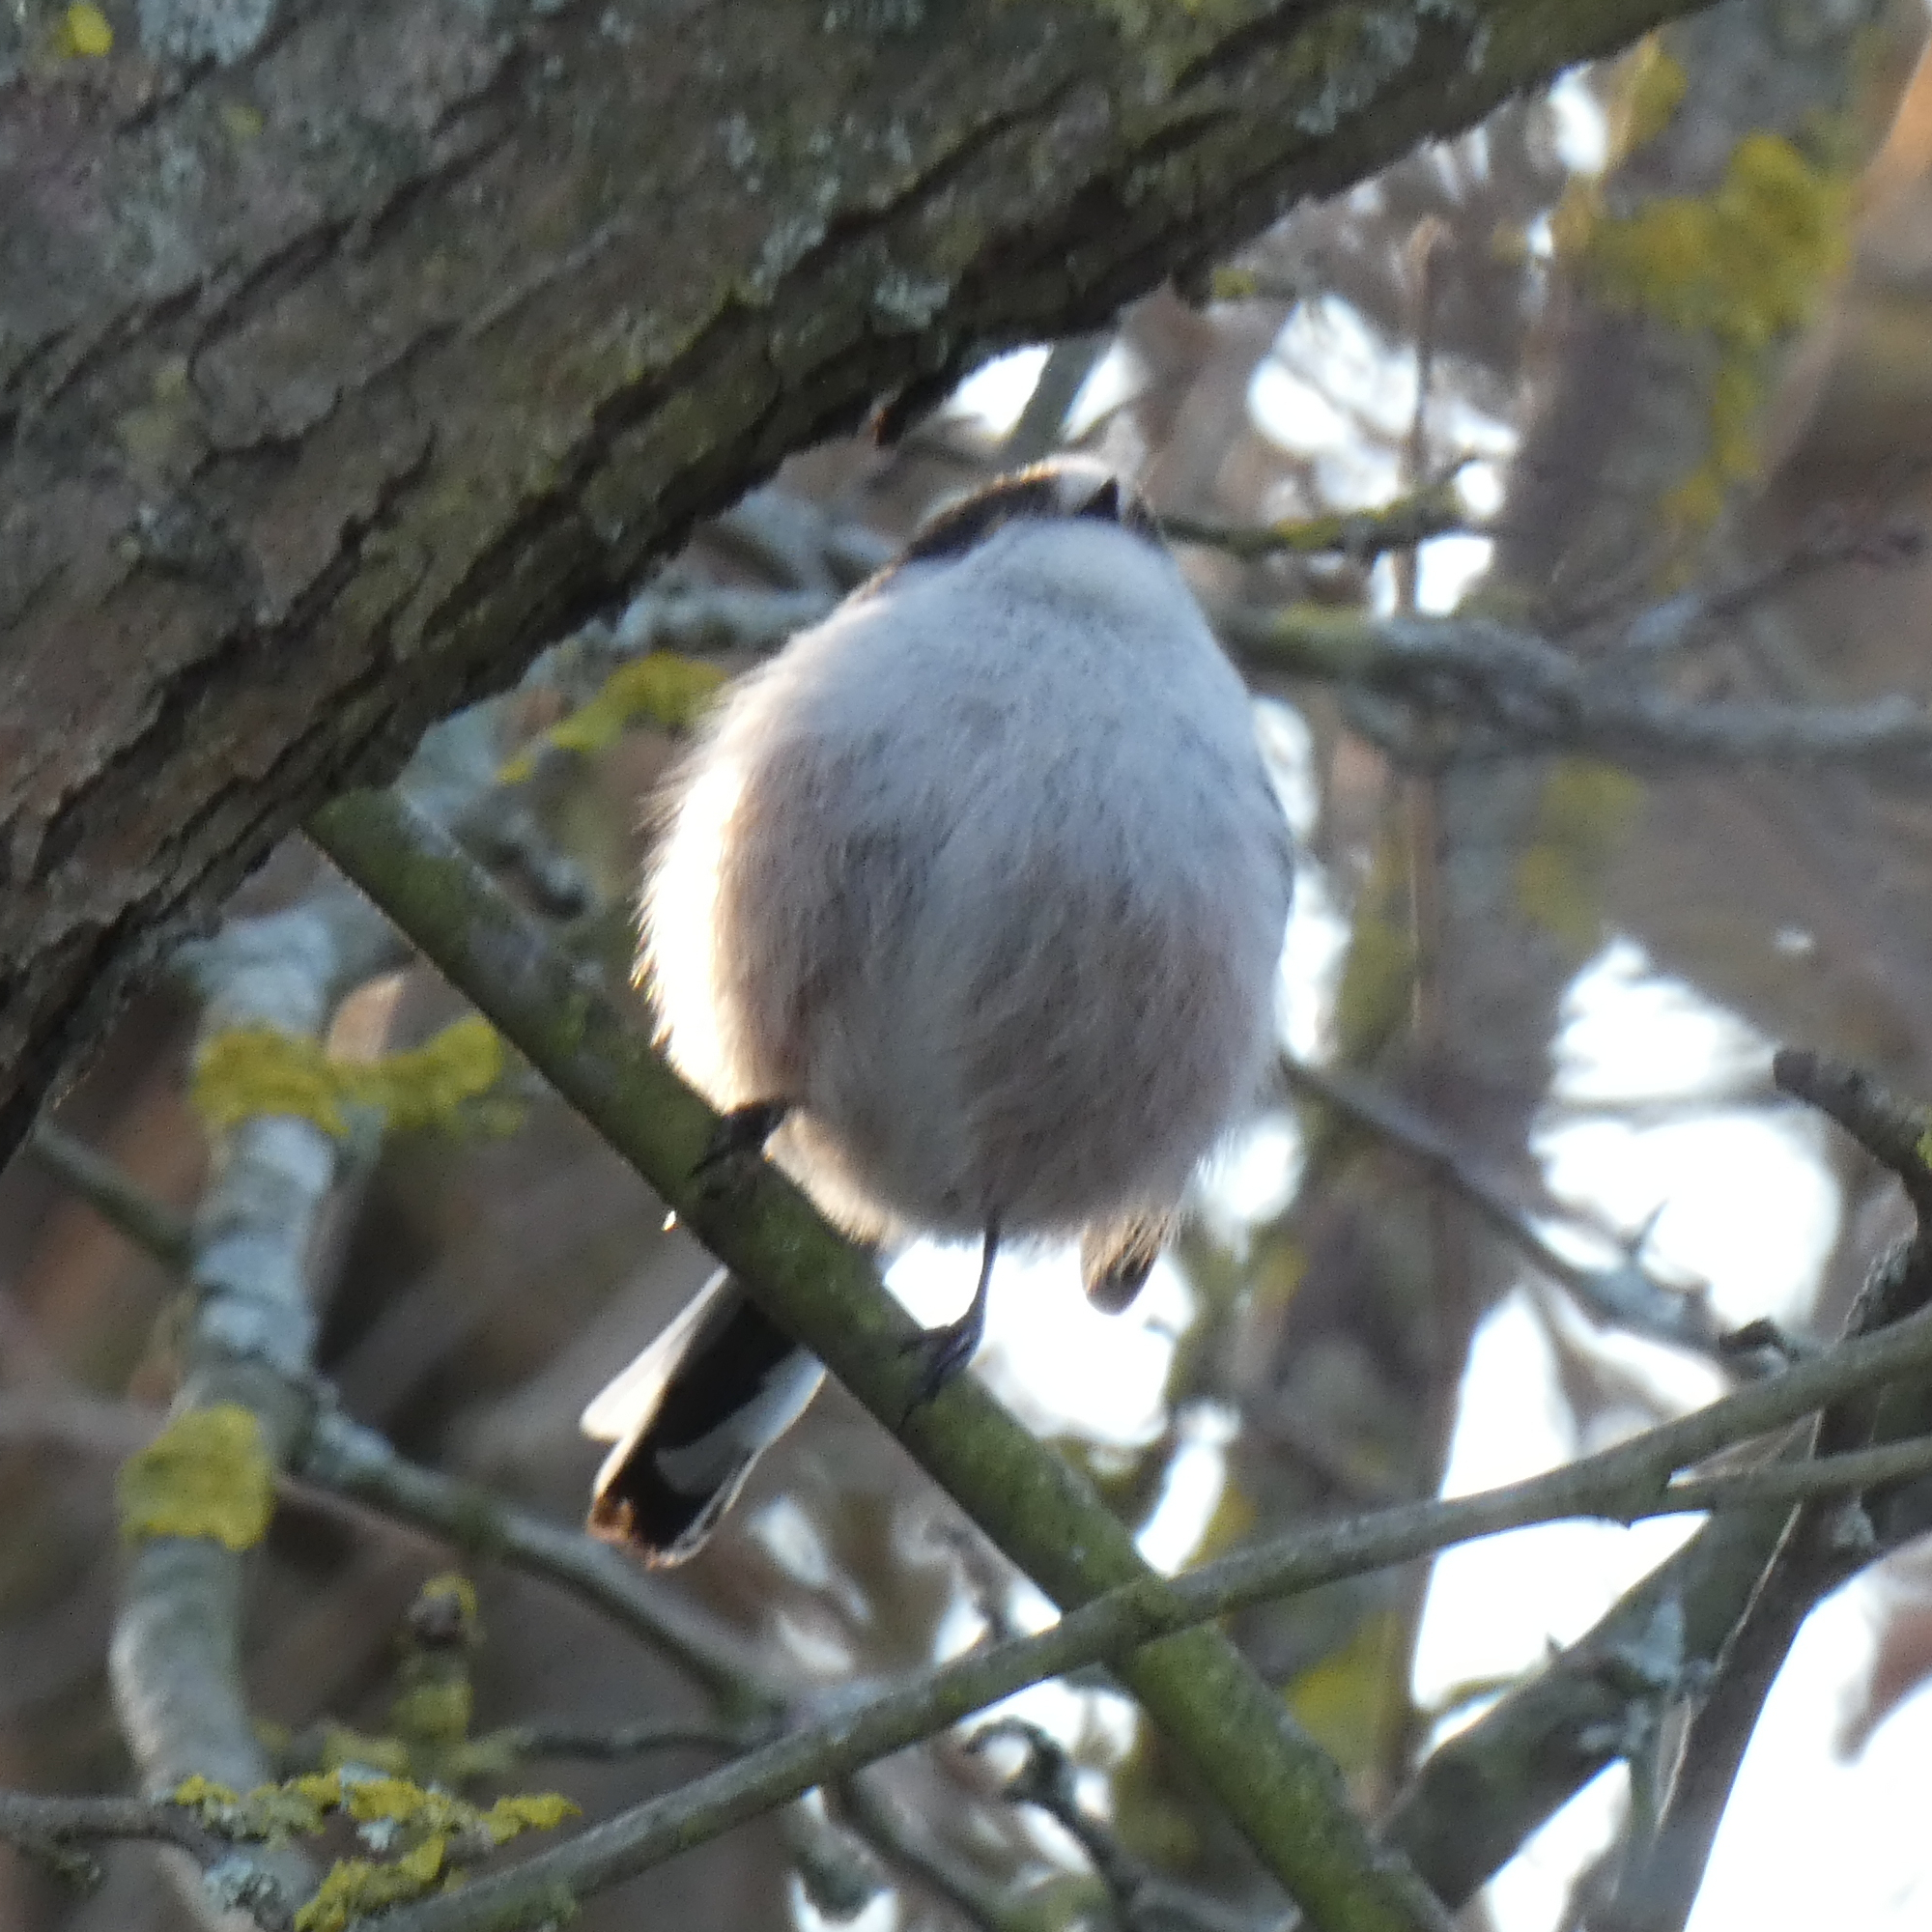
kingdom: Animalia
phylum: Chordata
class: Aves
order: Passeriformes
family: Aegithalidae
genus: Aegithalos
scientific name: Aegithalos caudatus
